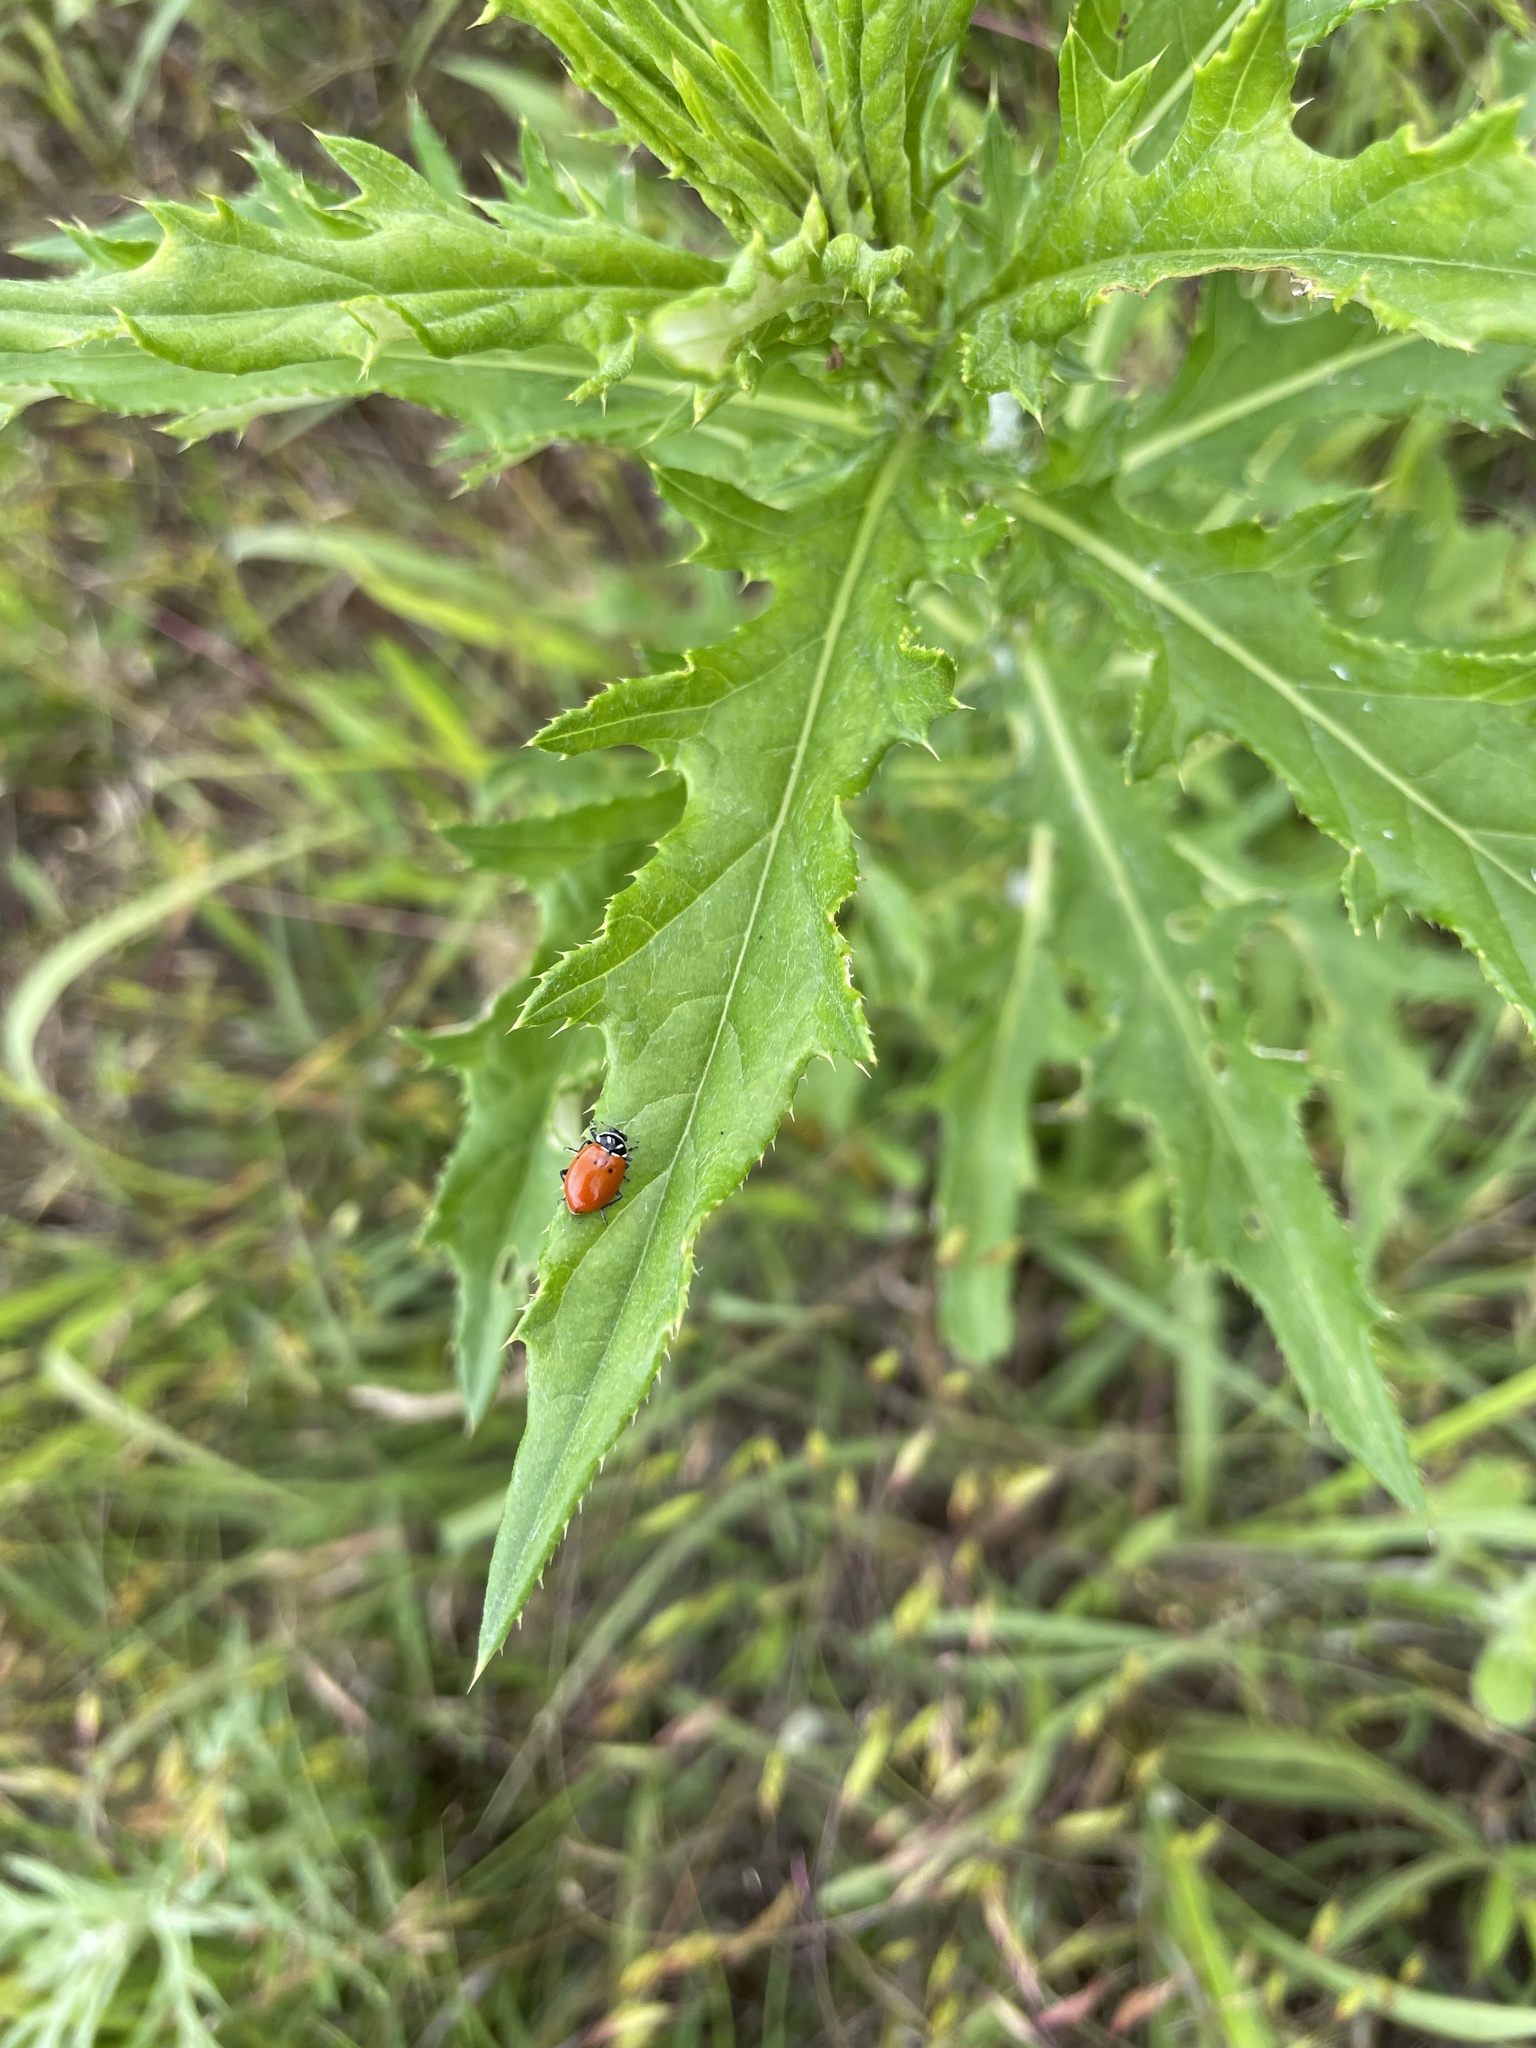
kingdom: Animalia
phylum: Arthropoda
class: Insecta
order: Coleoptera
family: Coccinellidae
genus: Hippodamia
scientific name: Hippodamia convergens
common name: Convergent lady beetle
